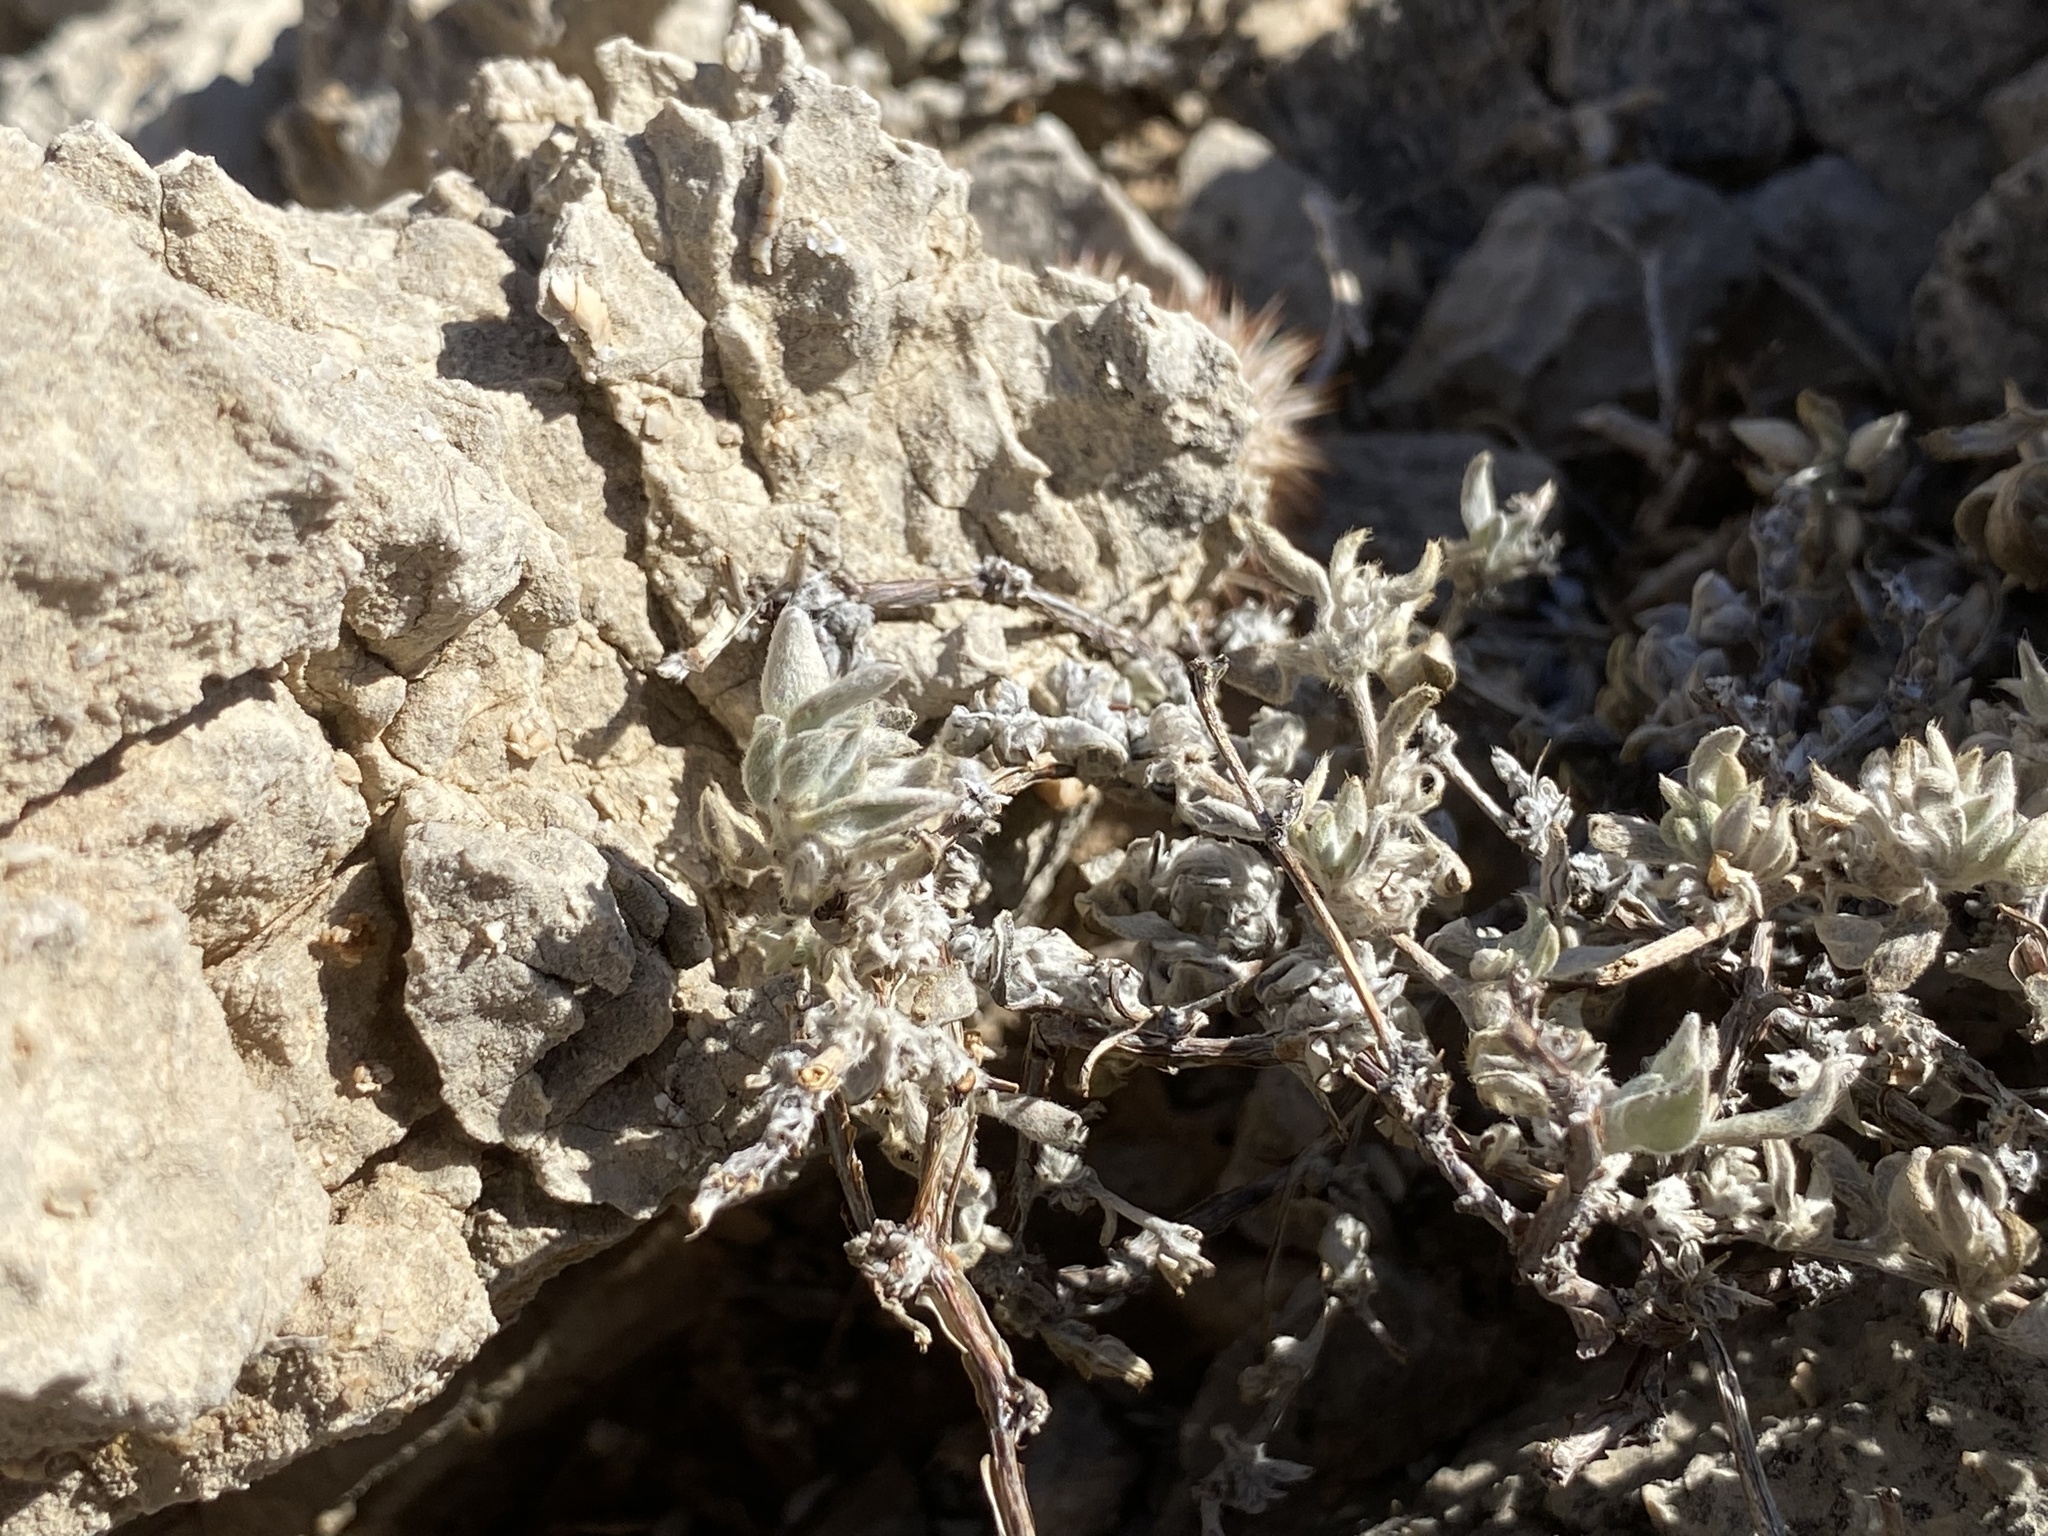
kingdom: Plantae
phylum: Tracheophyta
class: Magnoliopsida
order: Boraginales
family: Ehretiaceae
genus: Tiquilia
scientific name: Tiquilia canescens
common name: Hairy tiquilia
